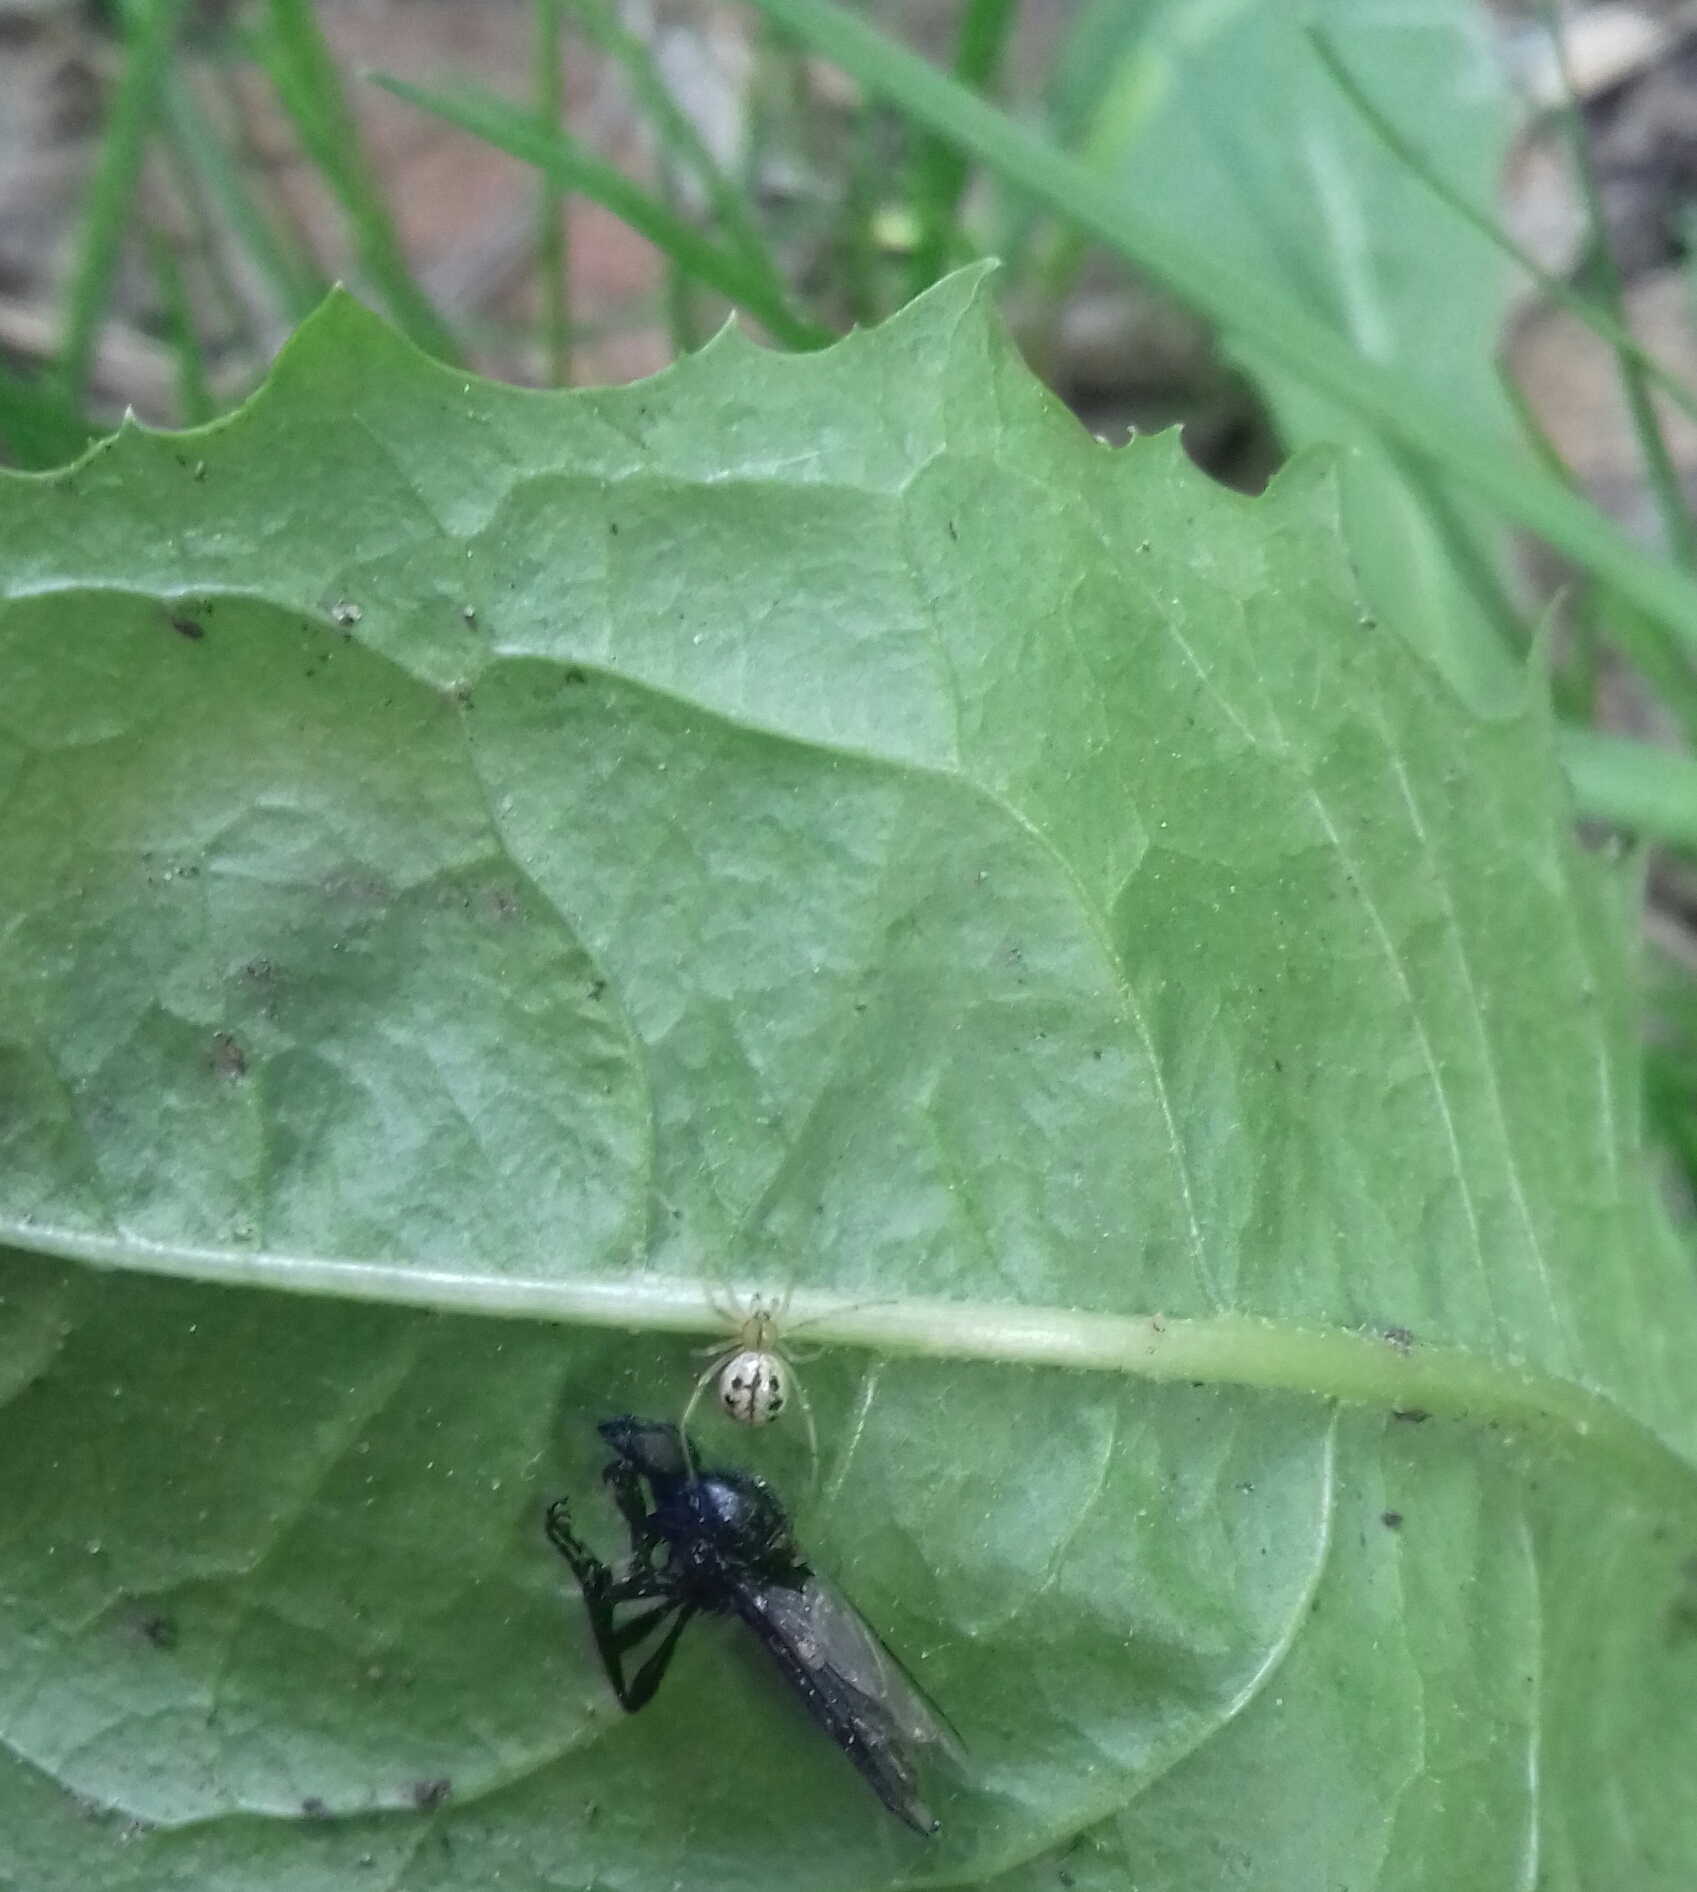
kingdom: Animalia
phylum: Arthropoda
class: Arachnida
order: Araneae
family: Theridiidae
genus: Enoplognatha
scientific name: Enoplognatha ovata
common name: Common candy-striped spider
